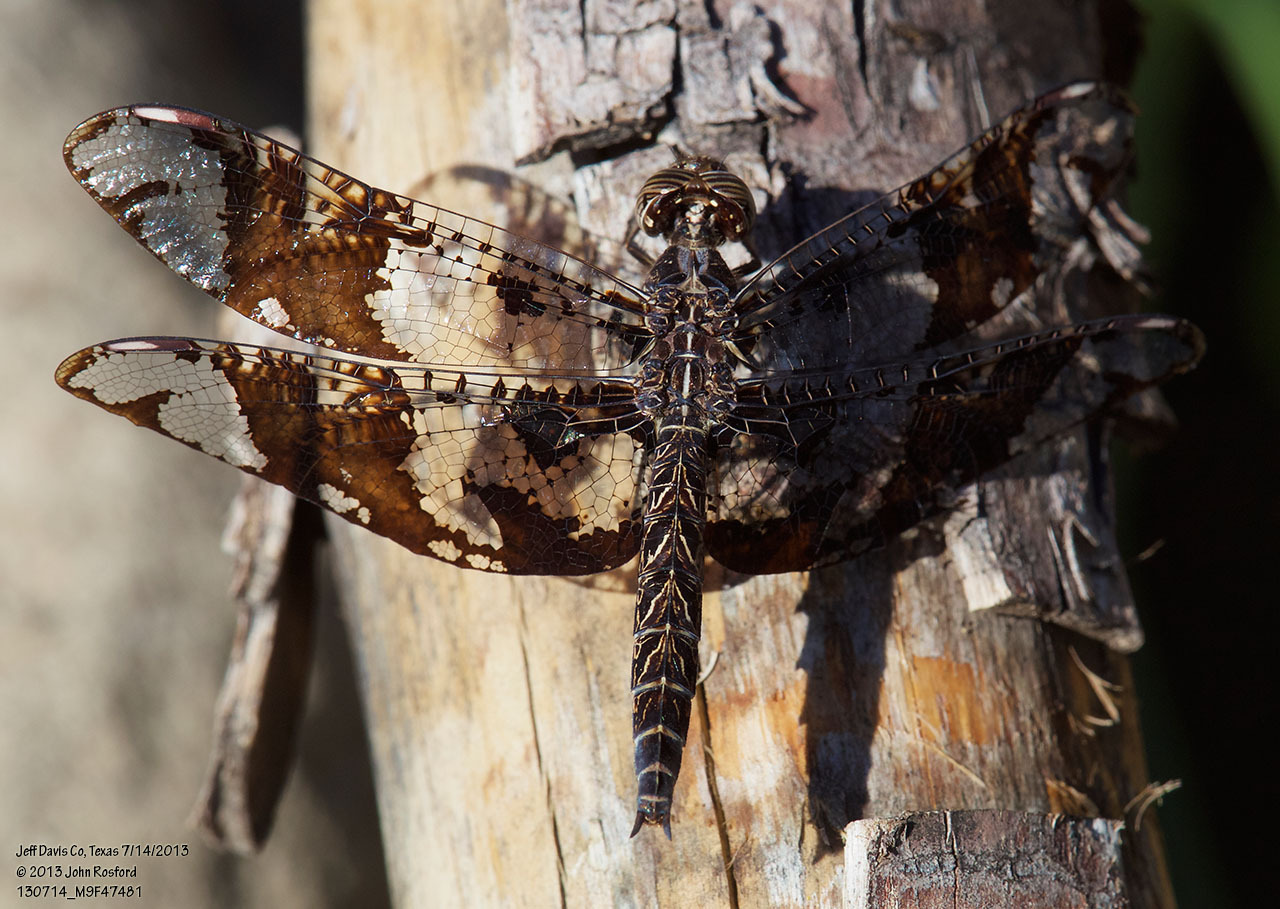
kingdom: Animalia
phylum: Arthropoda
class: Insecta
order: Odonata
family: Libellulidae
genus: Pseudoleon
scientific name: Pseudoleon superbus
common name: Filigree skimmer
